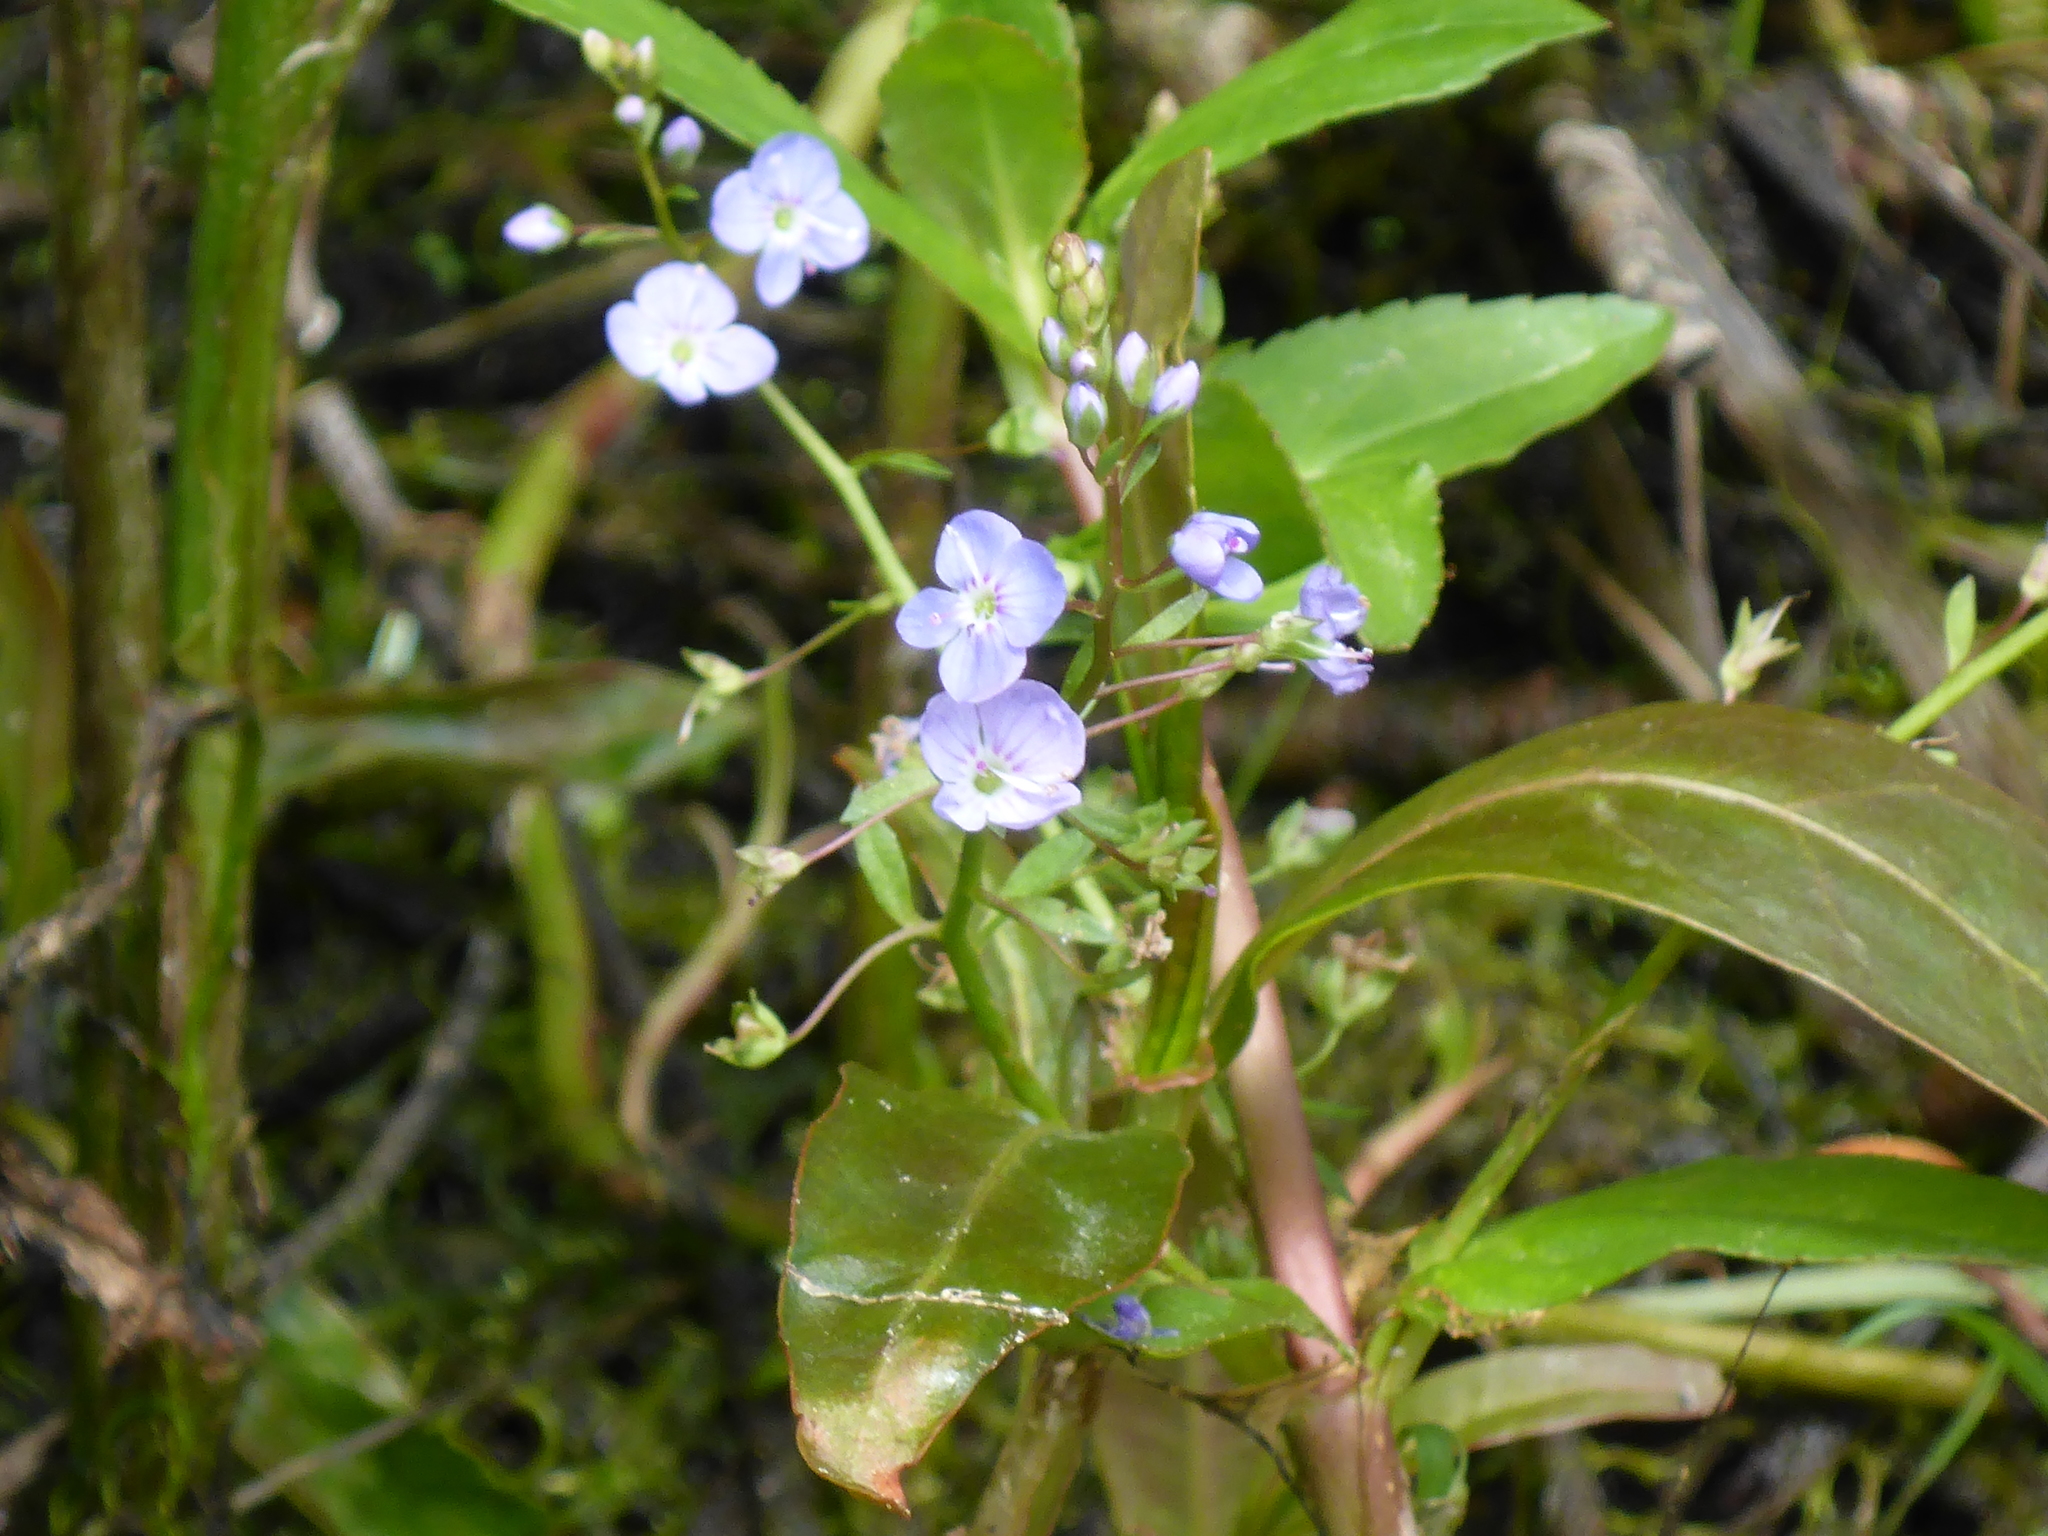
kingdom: Plantae
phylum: Tracheophyta
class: Magnoliopsida
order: Lamiales
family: Plantaginaceae
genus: Veronica
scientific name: Veronica americana
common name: American brooklime
